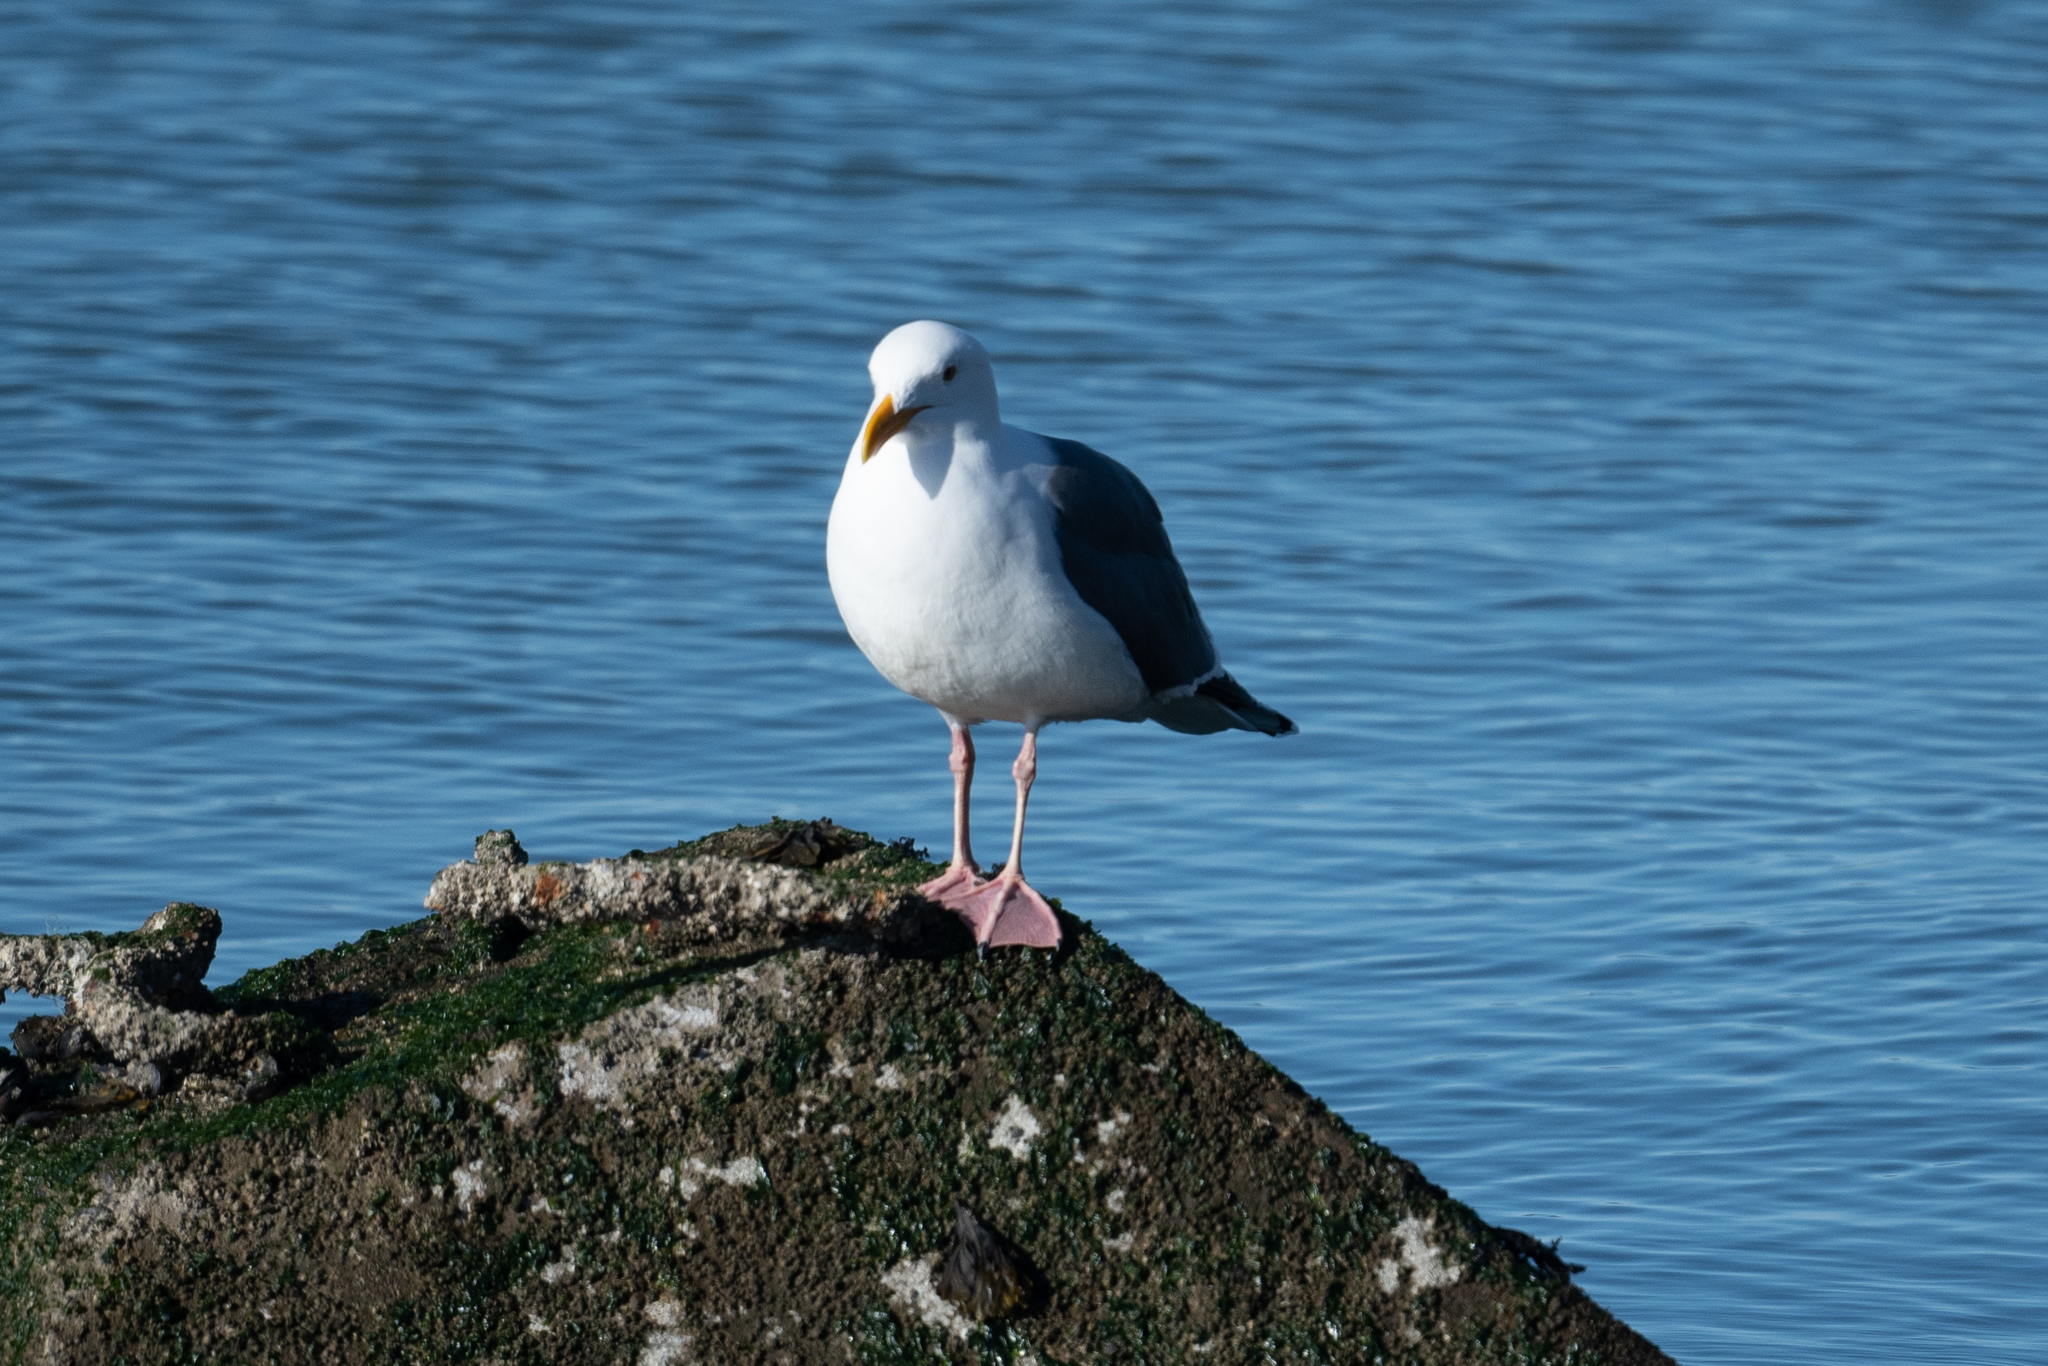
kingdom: Animalia
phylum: Chordata
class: Aves
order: Charadriiformes
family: Laridae
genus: Larus
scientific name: Larus occidentalis
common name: Western gull
